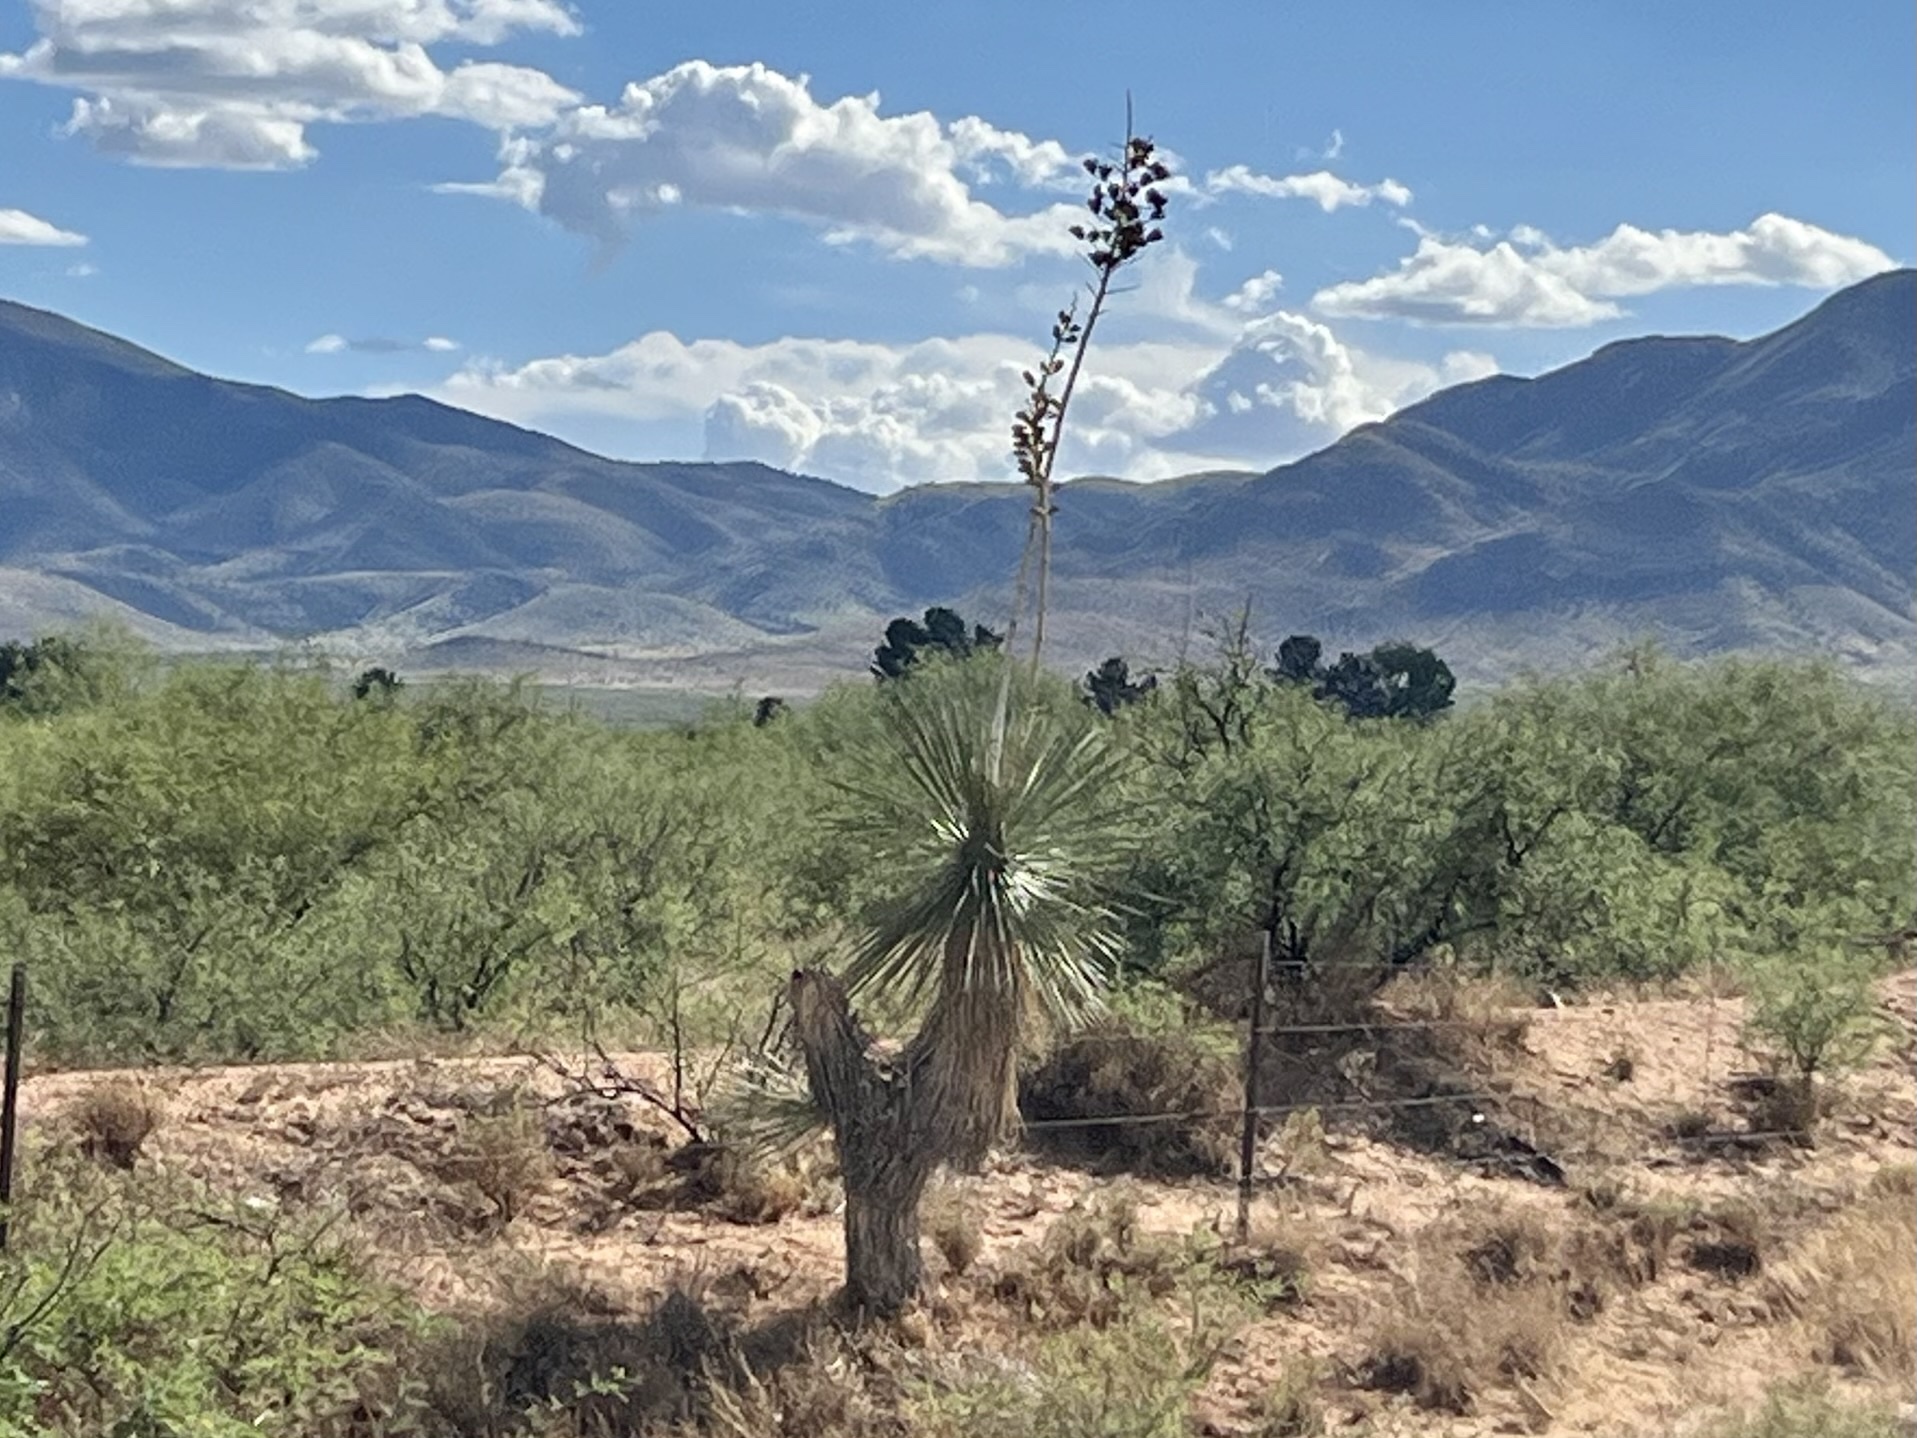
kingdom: Plantae
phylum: Tracheophyta
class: Liliopsida
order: Asparagales
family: Asparagaceae
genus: Yucca
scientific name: Yucca elata
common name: Palmella
